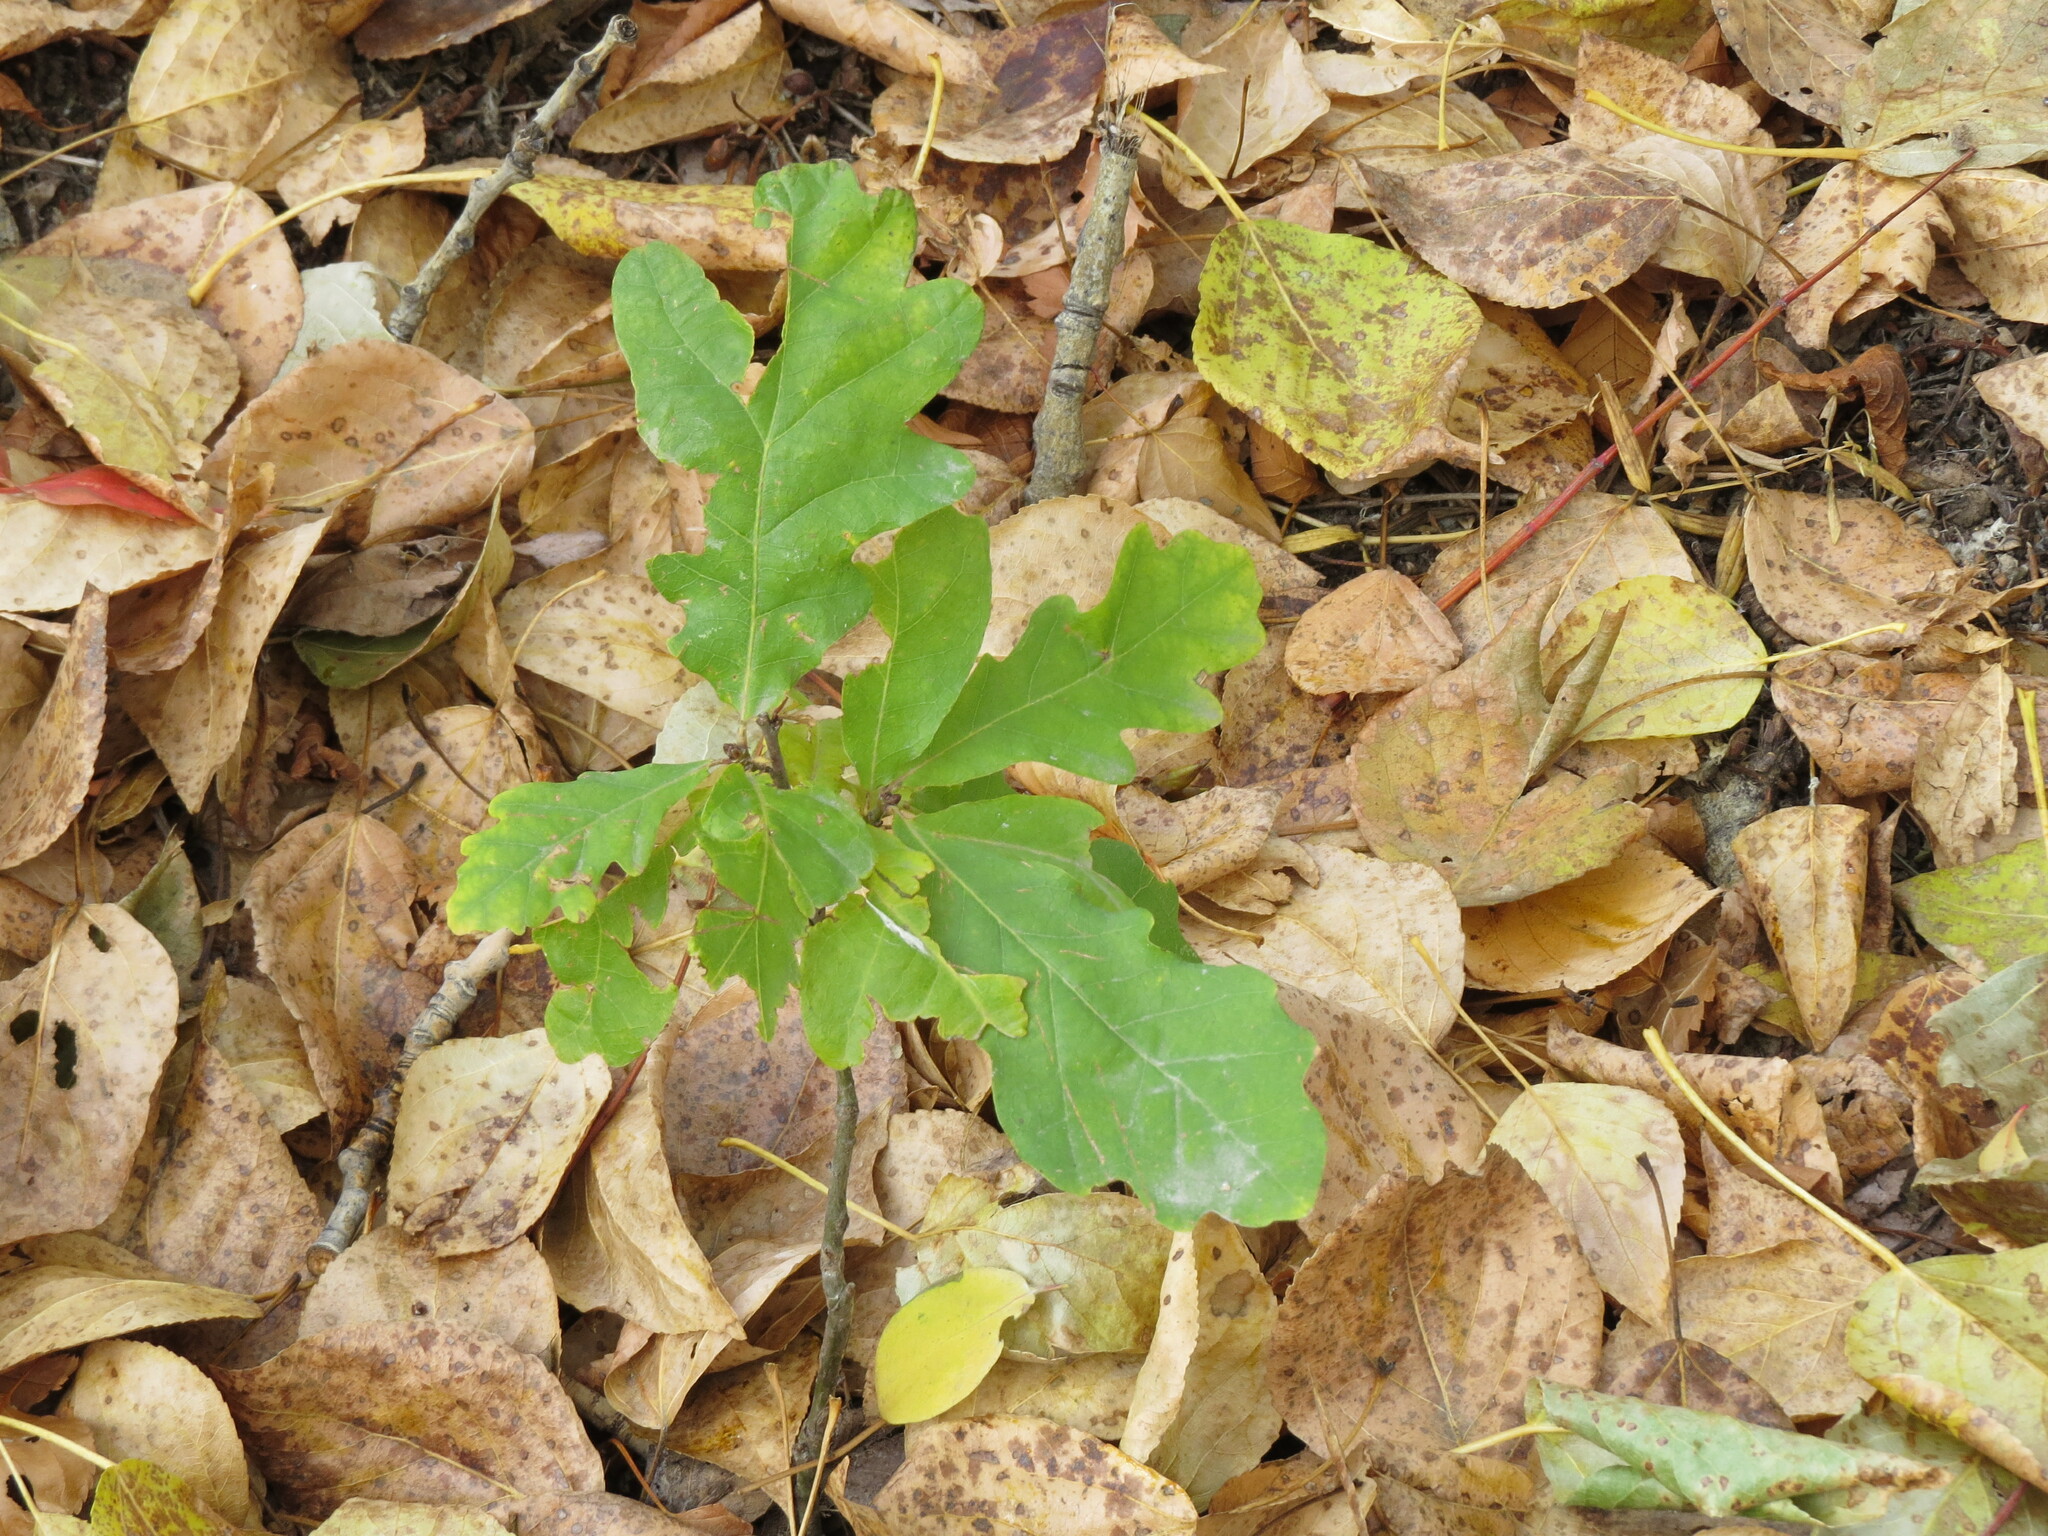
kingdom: Plantae
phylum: Tracheophyta
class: Magnoliopsida
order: Fagales
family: Fagaceae
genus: Quercus
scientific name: Quercus robur
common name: Pedunculate oak
